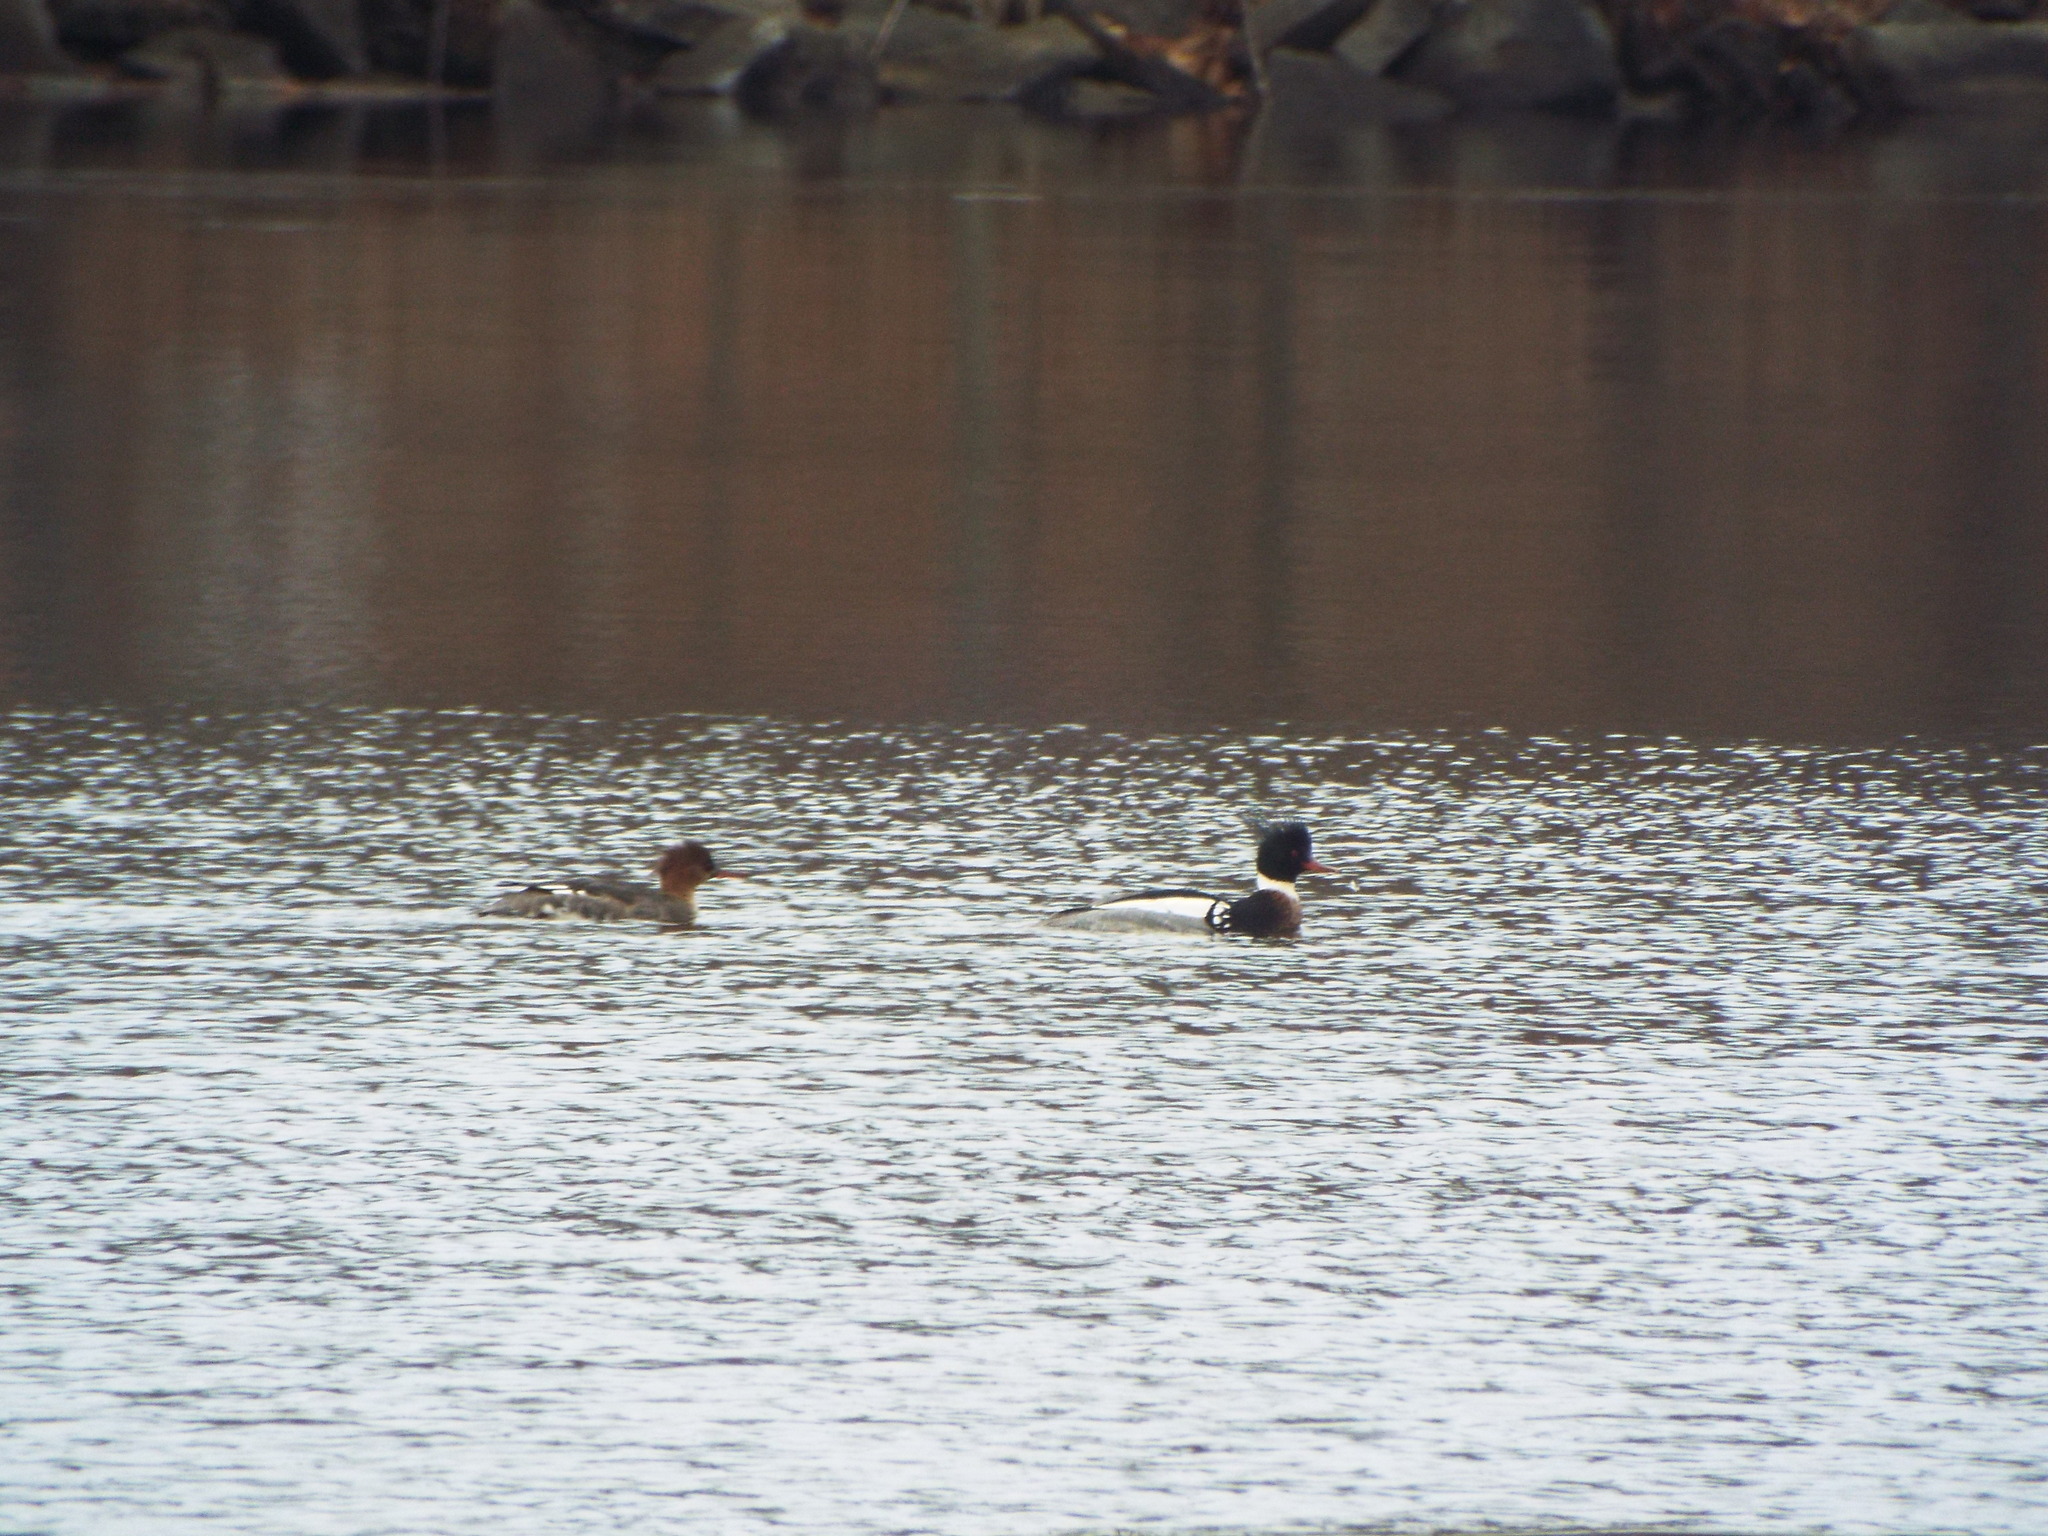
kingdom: Animalia
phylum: Chordata
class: Aves
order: Anseriformes
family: Anatidae
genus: Mergus
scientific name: Mergus serrator
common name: Red-breasted merganser
